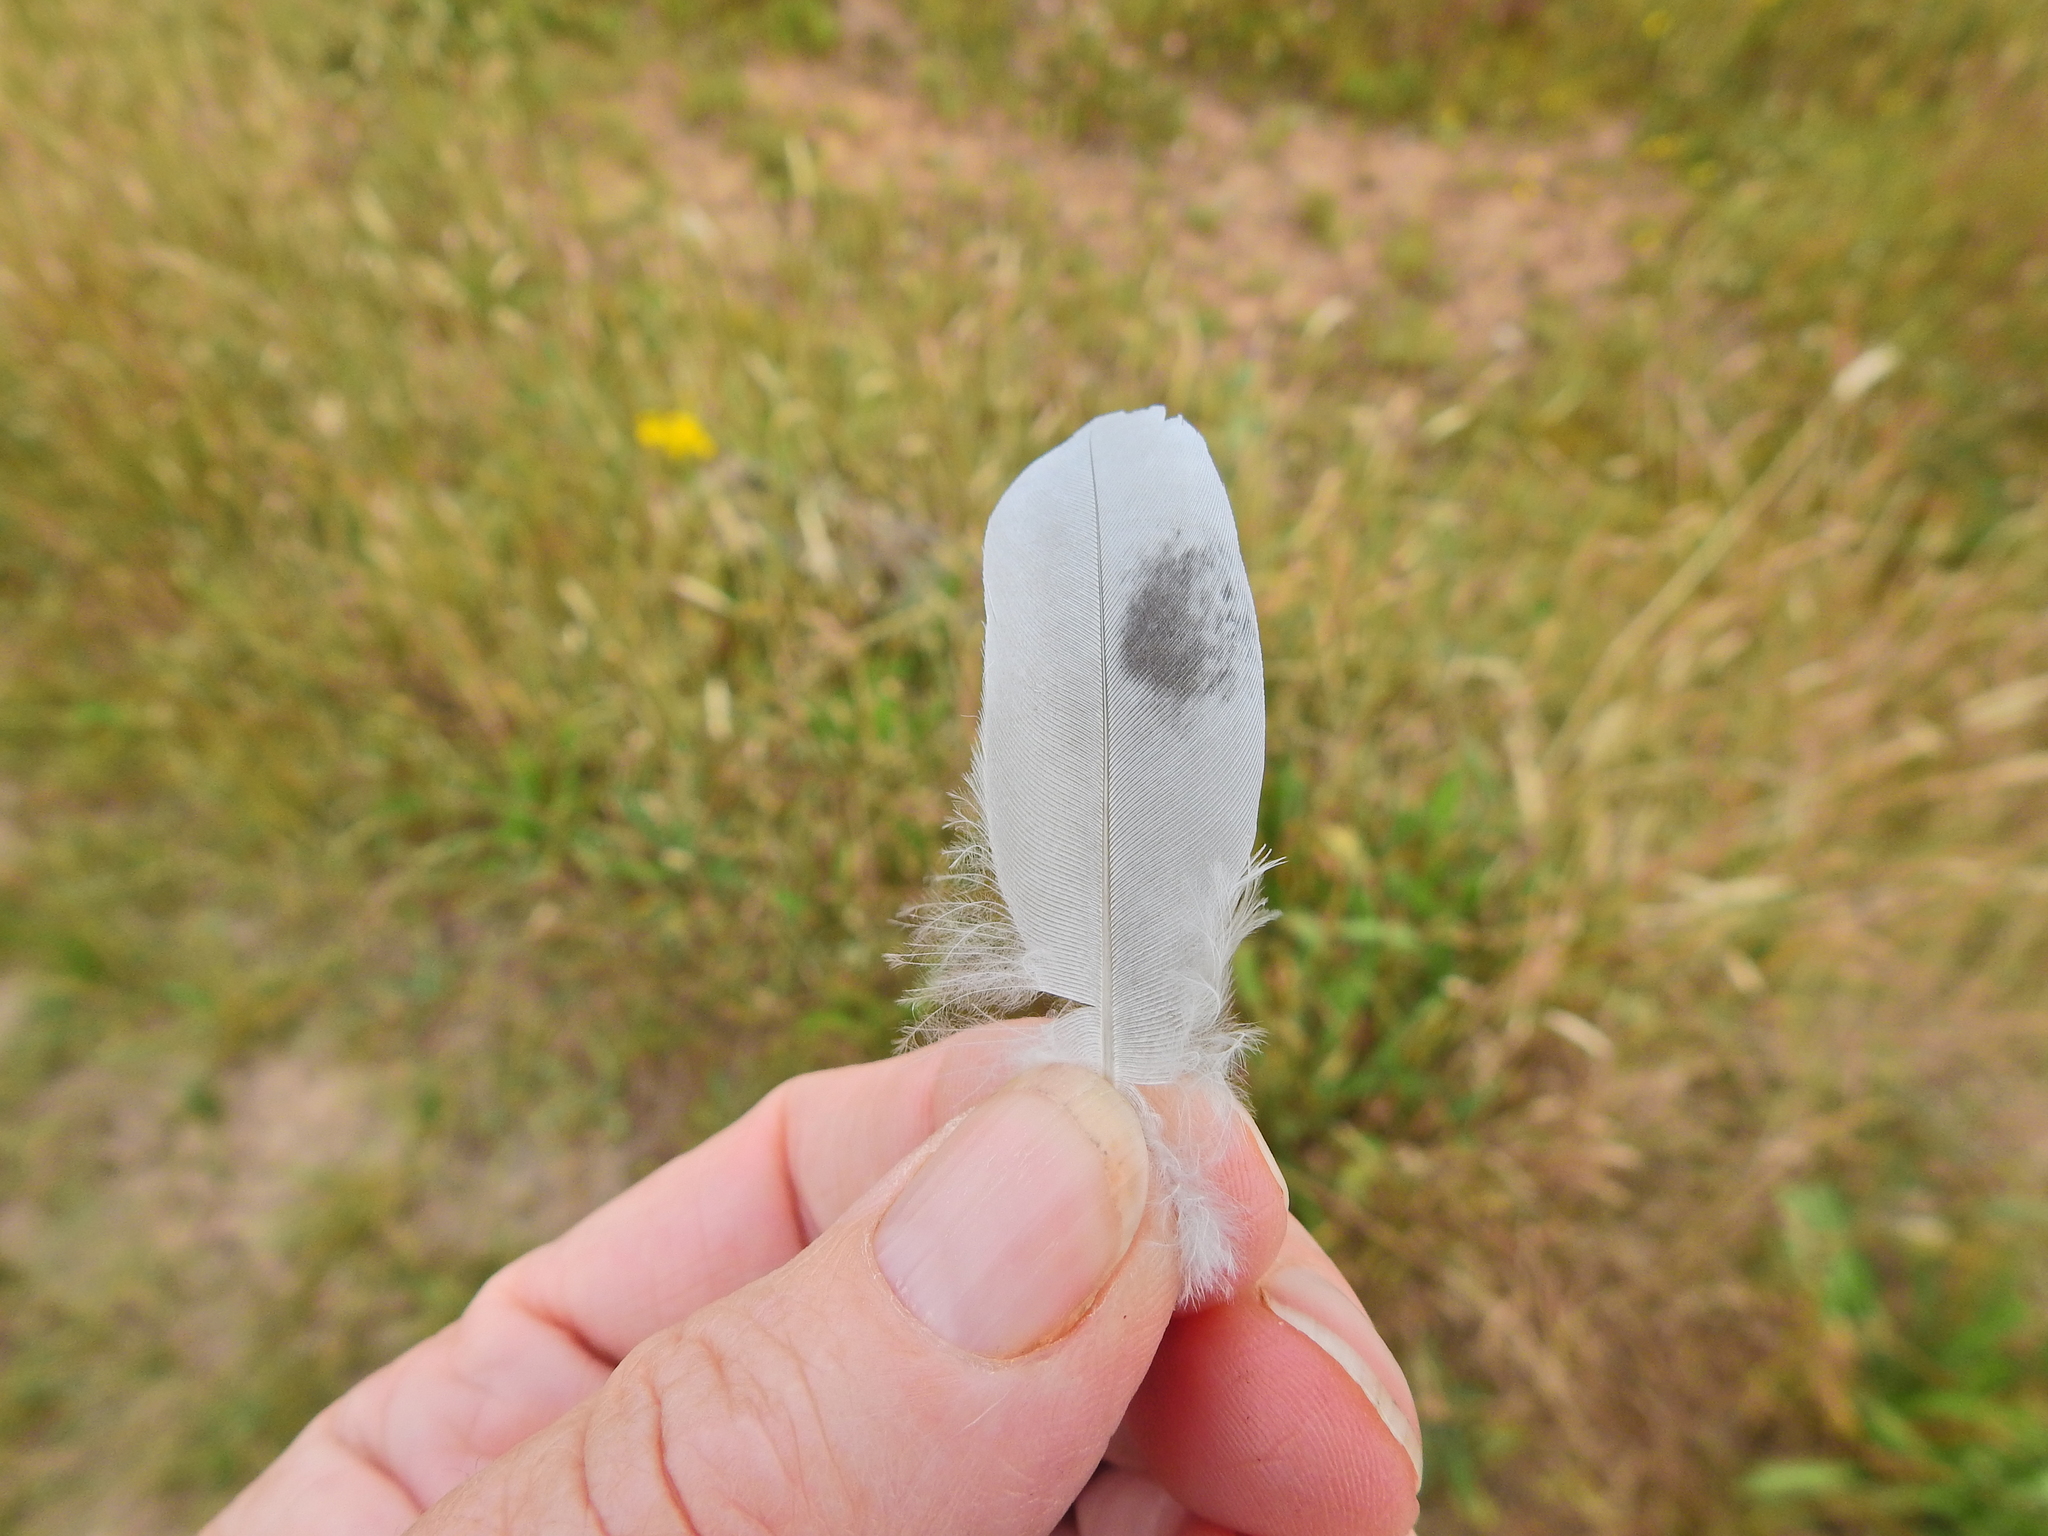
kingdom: Animalia
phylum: Chordata
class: Aves
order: Columbiformes
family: Columbidae
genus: Columba
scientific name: Columba oenas
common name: Stock dove
